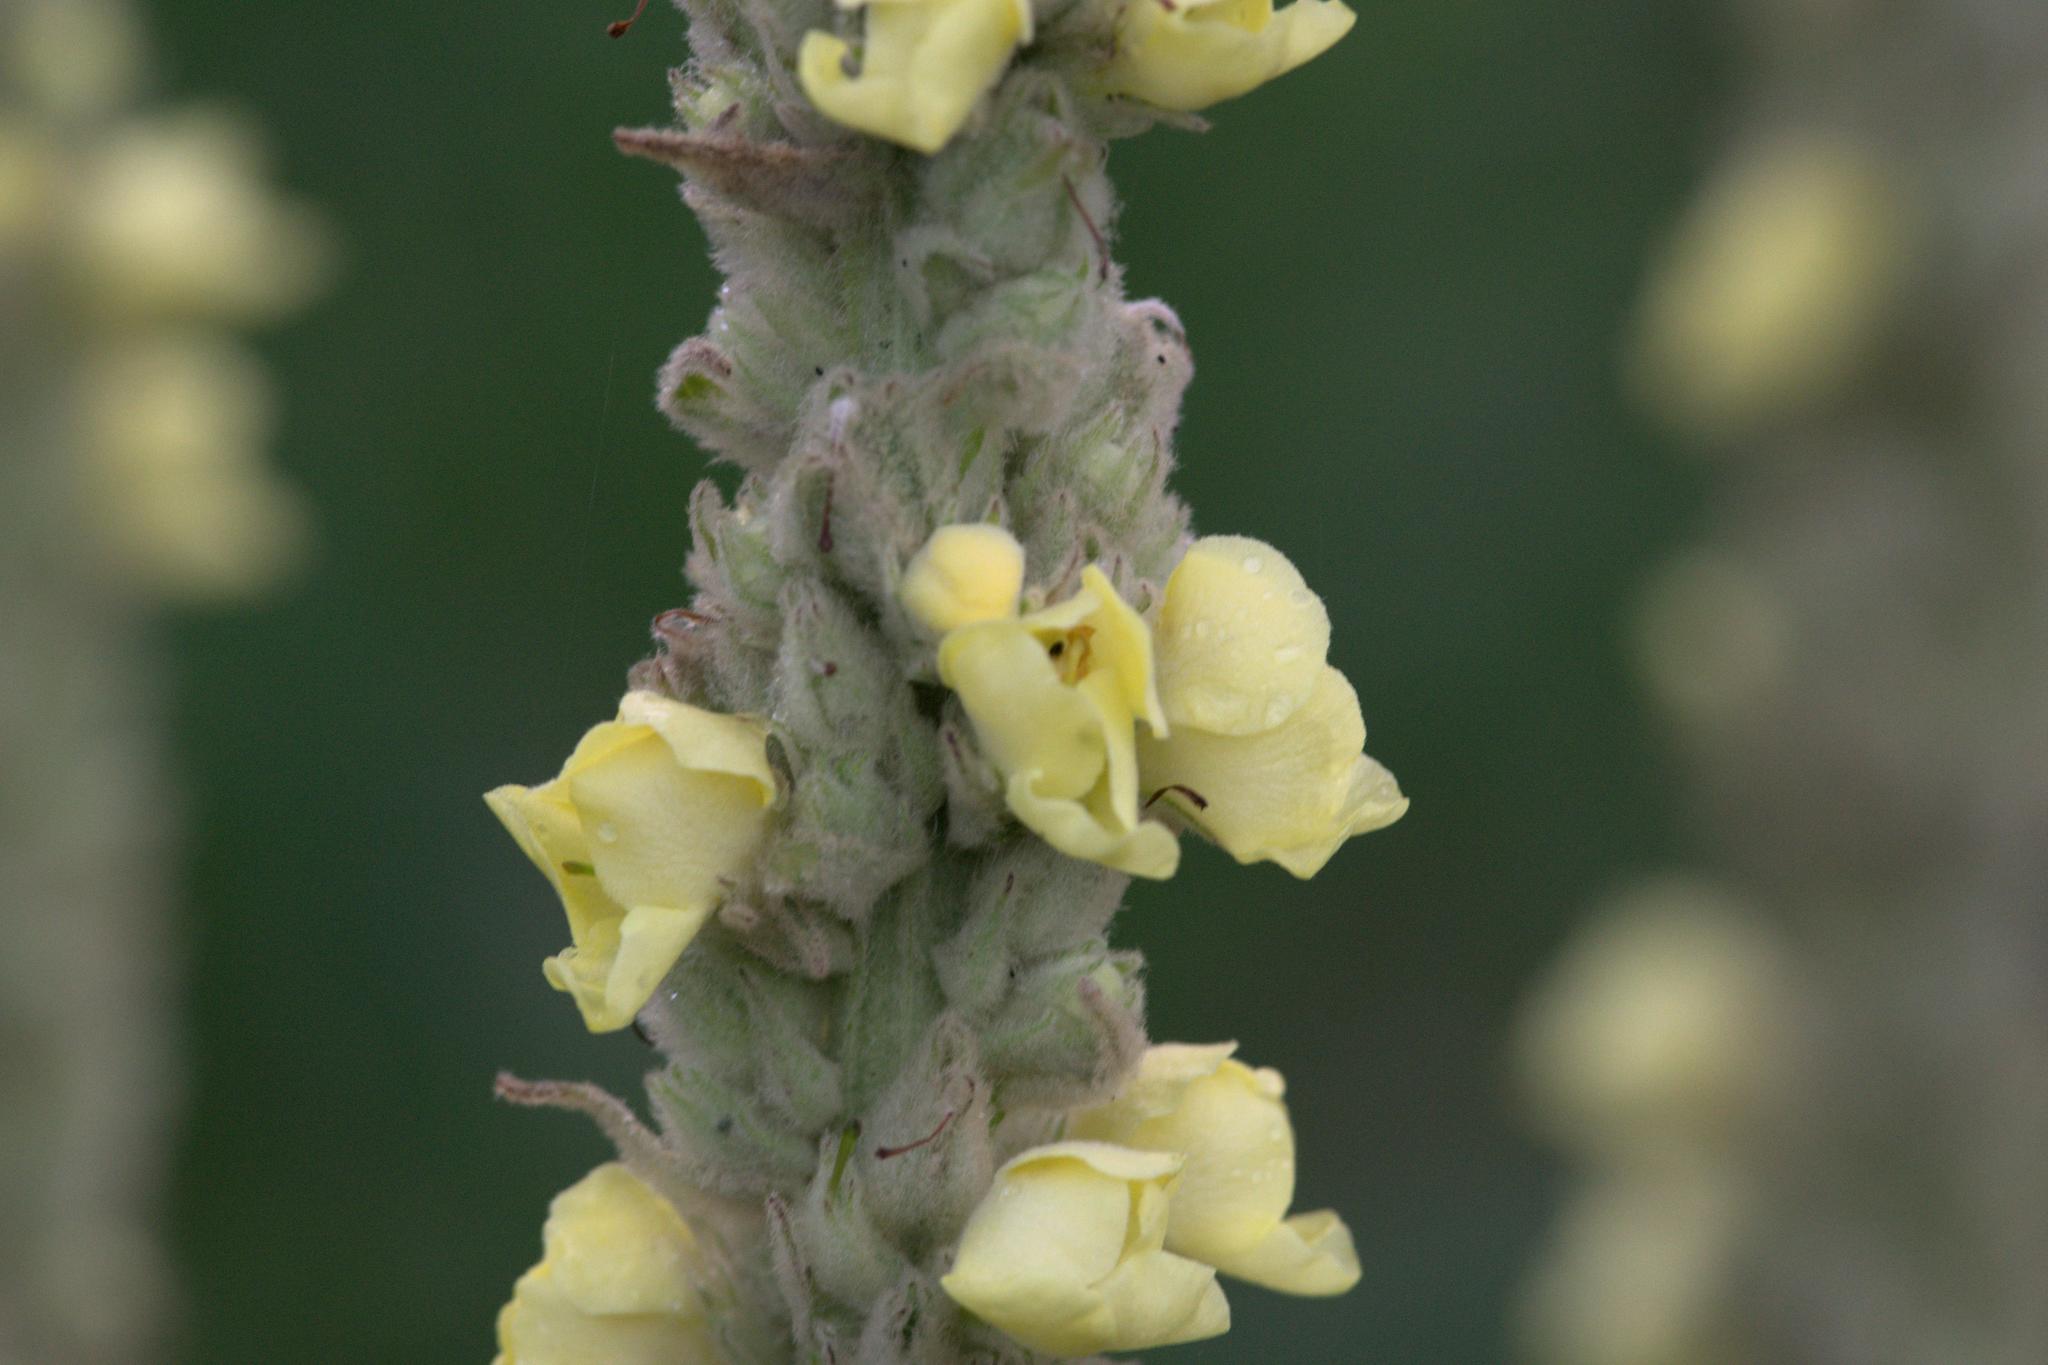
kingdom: Plantae
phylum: Tracheophyta
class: Magnoliopsida
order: Lamiales
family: Scrophulariaceae
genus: Verbascum
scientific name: Verbascum thapsus
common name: Common mullein
